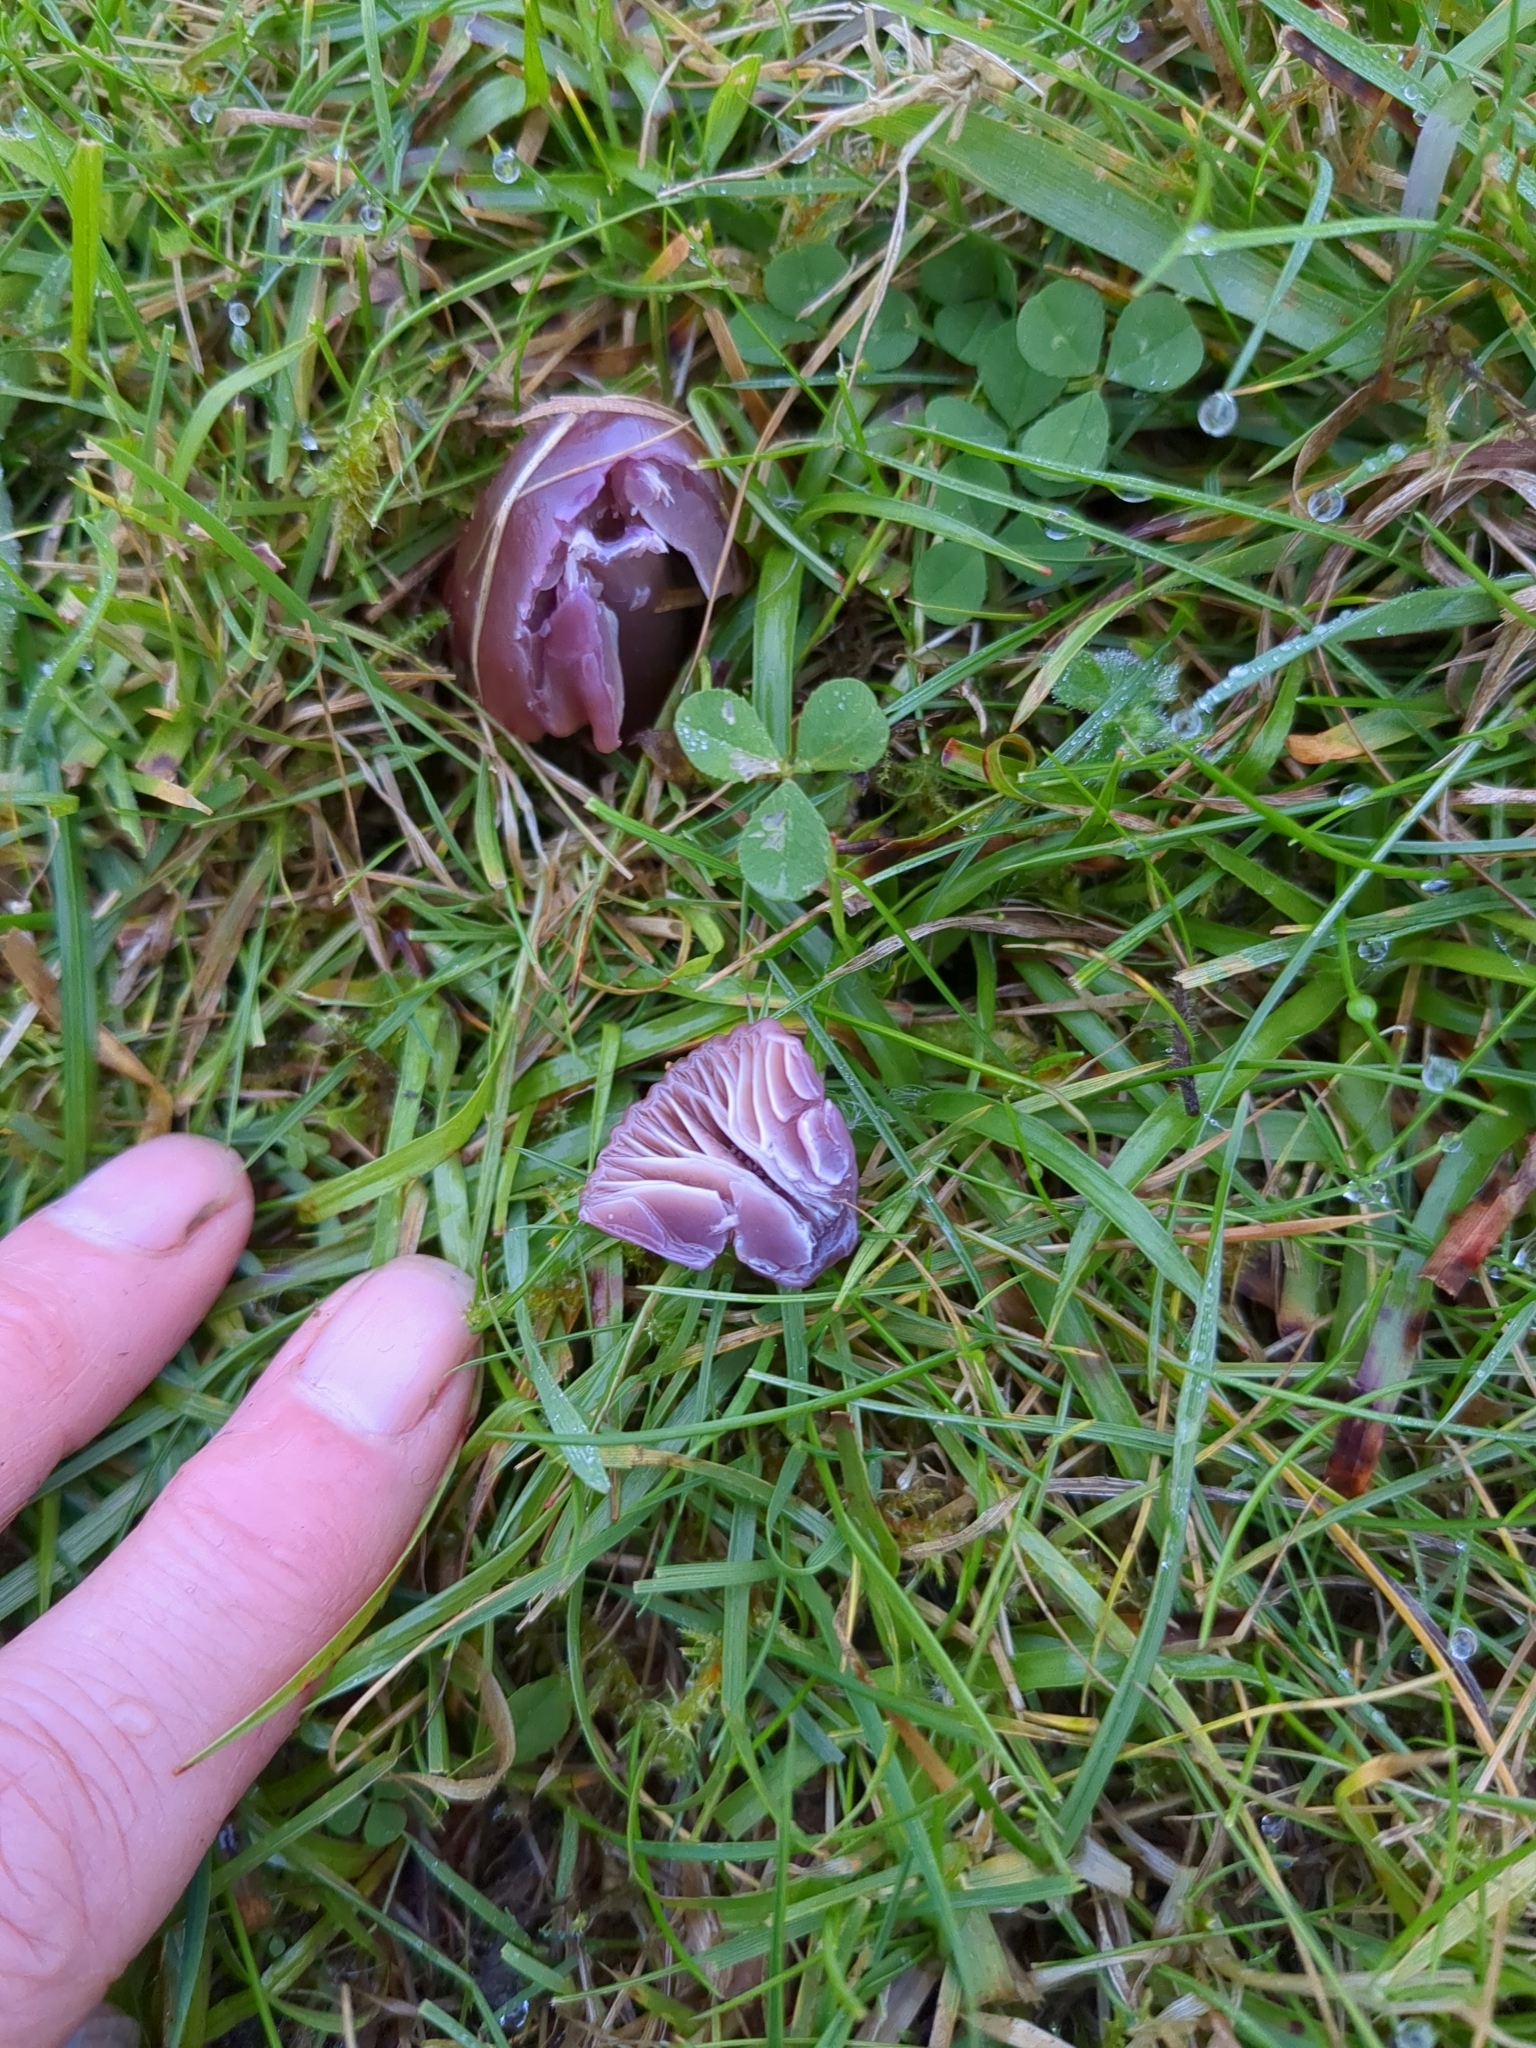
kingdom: Fungi
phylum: Basidiomycota
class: Agaricomycetes
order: Agaricales
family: Hygrophoraceae
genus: Gliophorus
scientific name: Gliophorus reginae
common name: Jubilee waxcap
